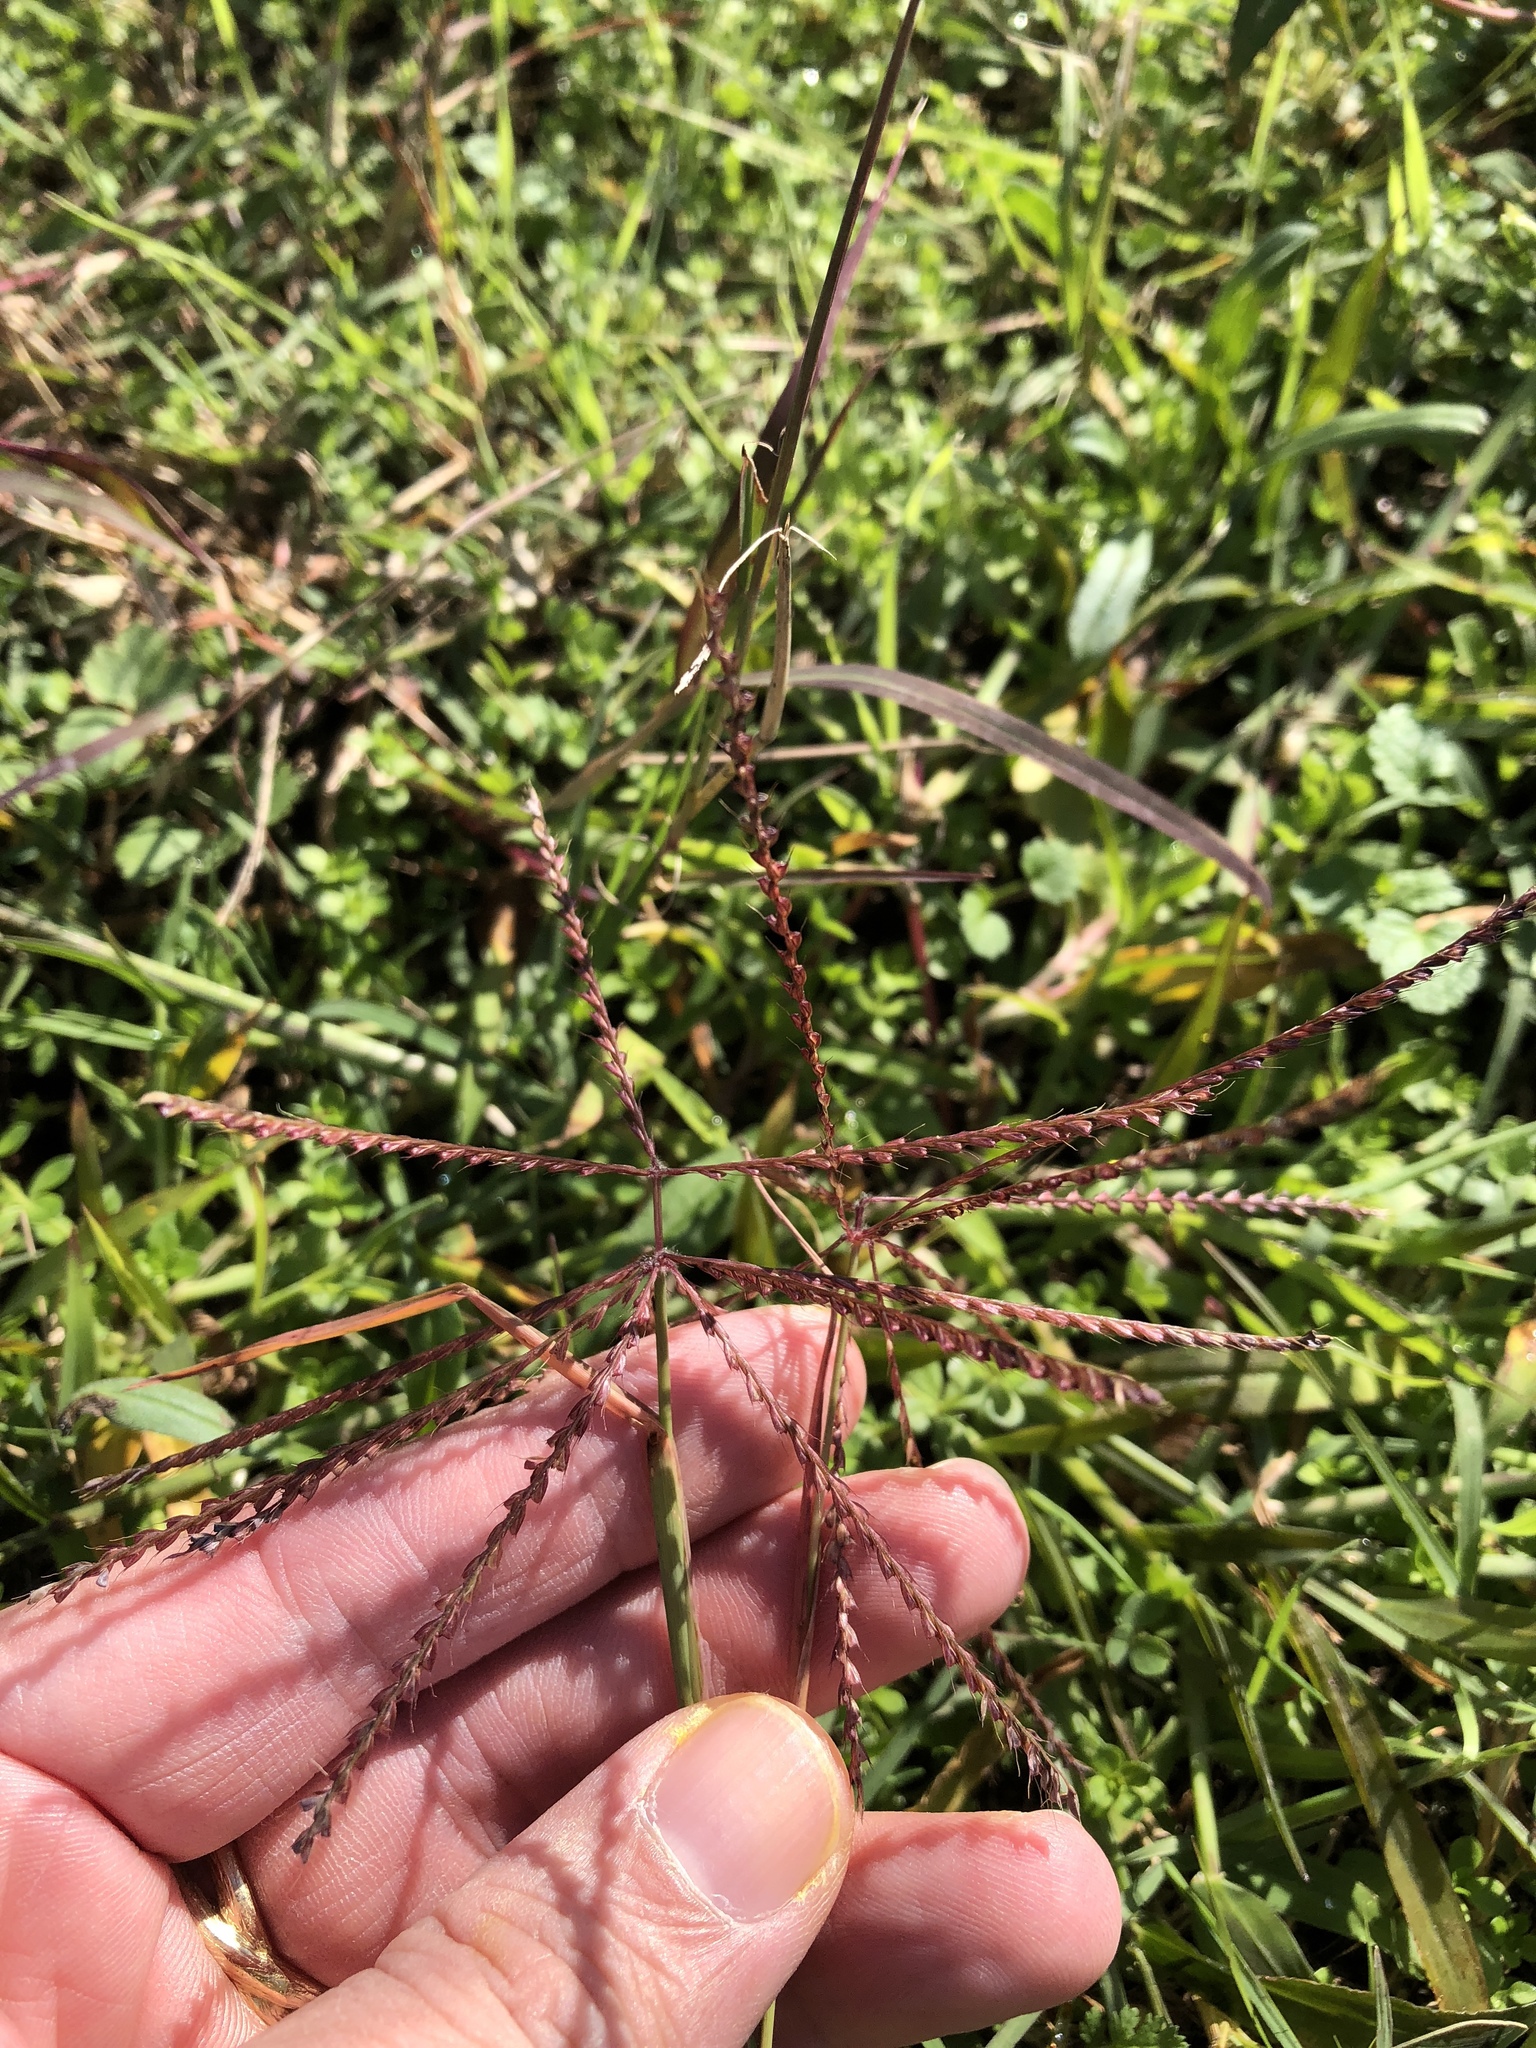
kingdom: Plantae
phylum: Tracheophyta
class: Liliopsida
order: Poales
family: Poaceae
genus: Chloris
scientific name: Chloris verticillata
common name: Tumble windmill grass
